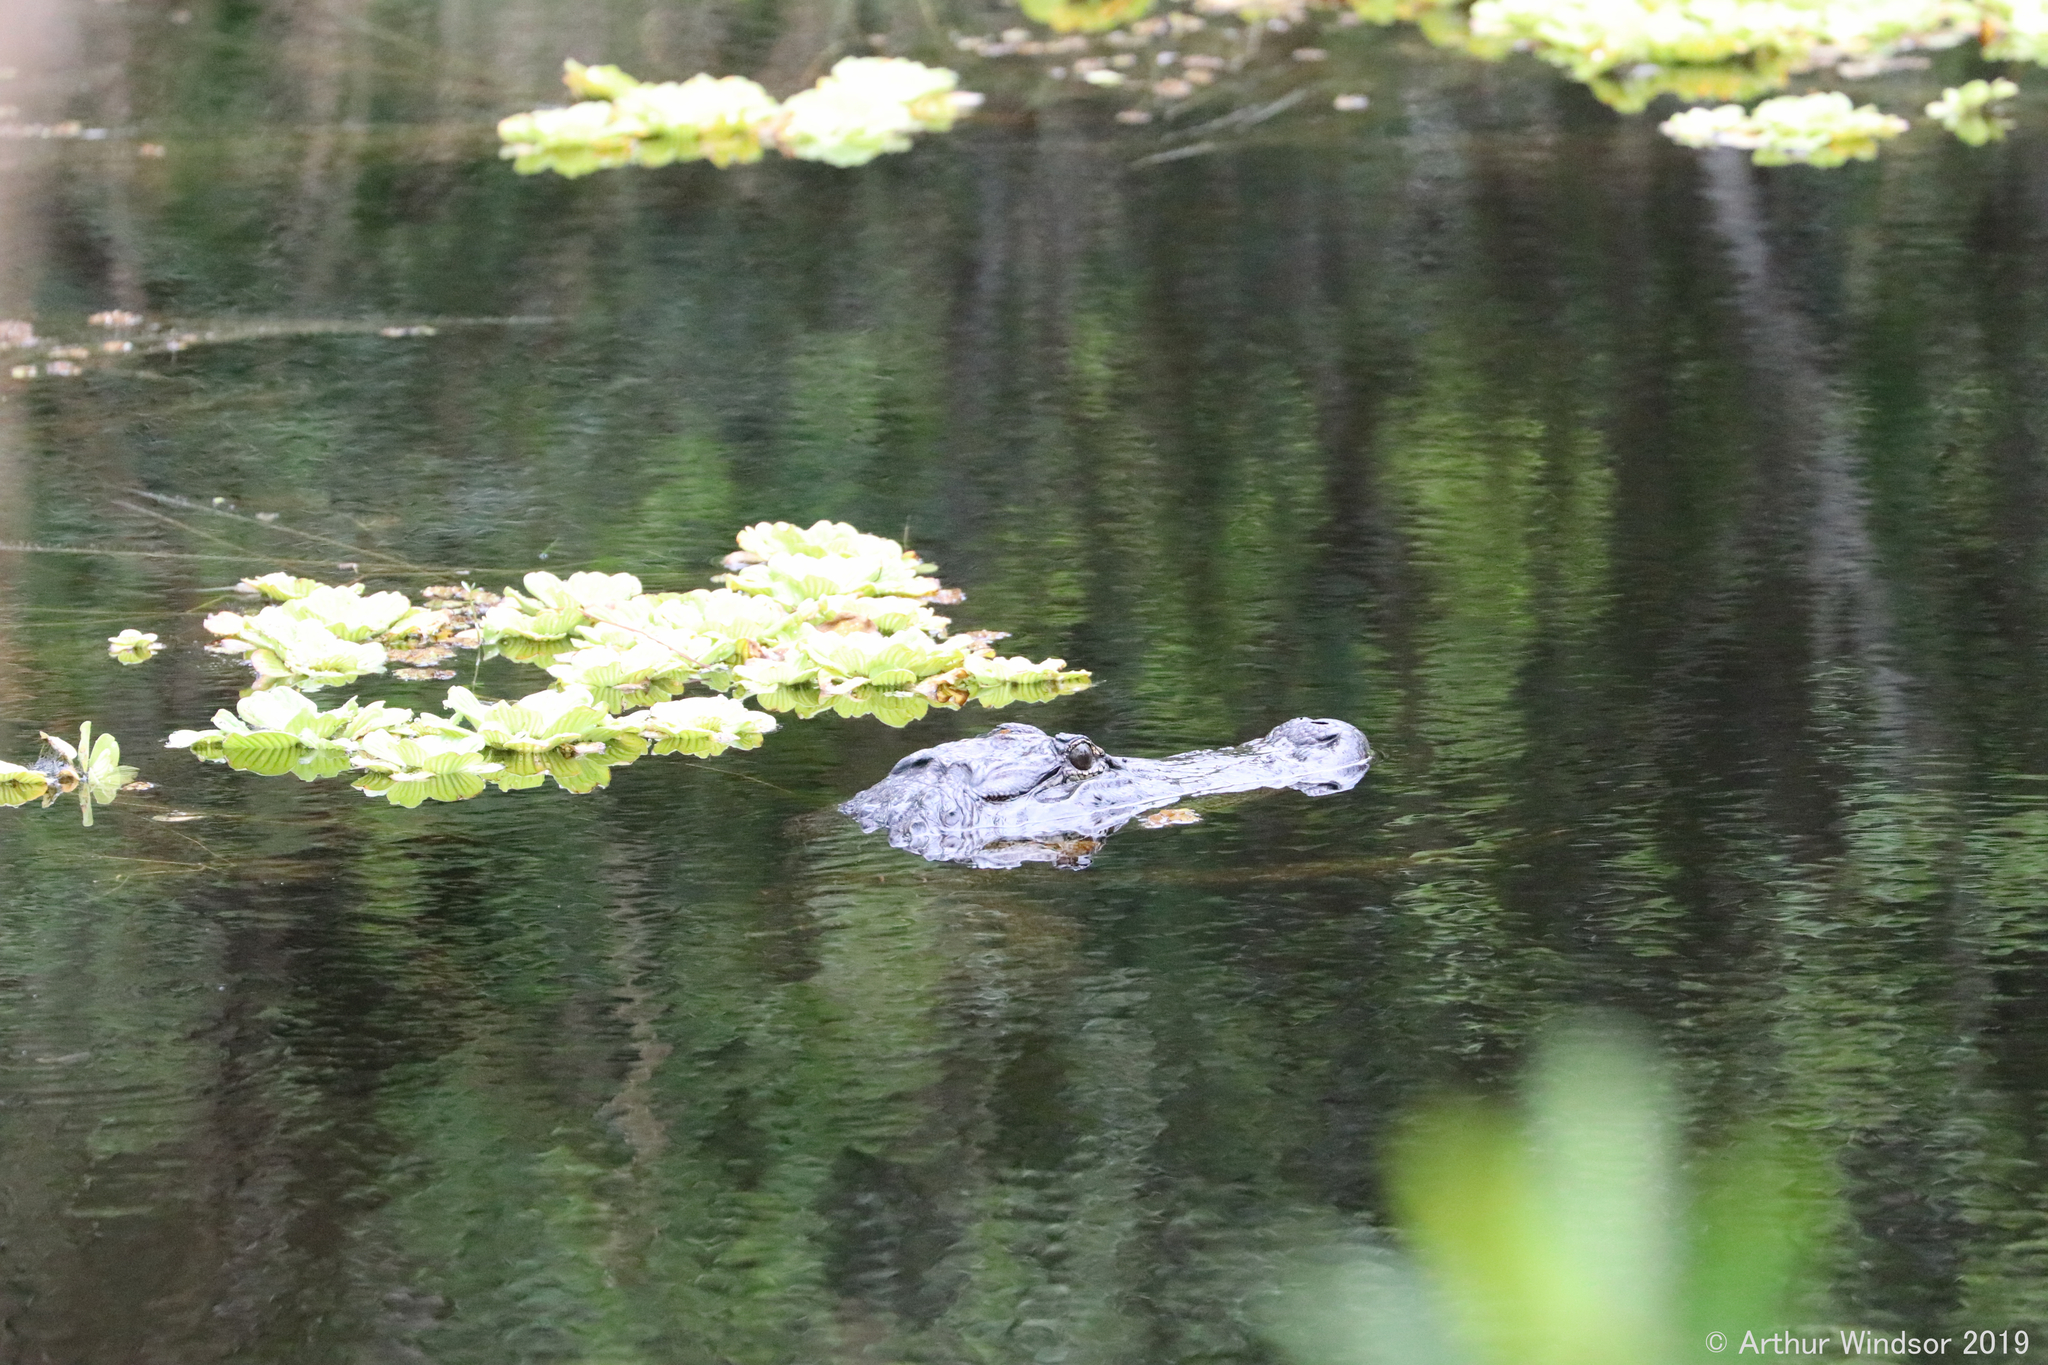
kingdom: Animalia
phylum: Chordata
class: Crocodylia
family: Alligatoridae
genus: Alligator
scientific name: Alligator mississippiensis
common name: American alligator
